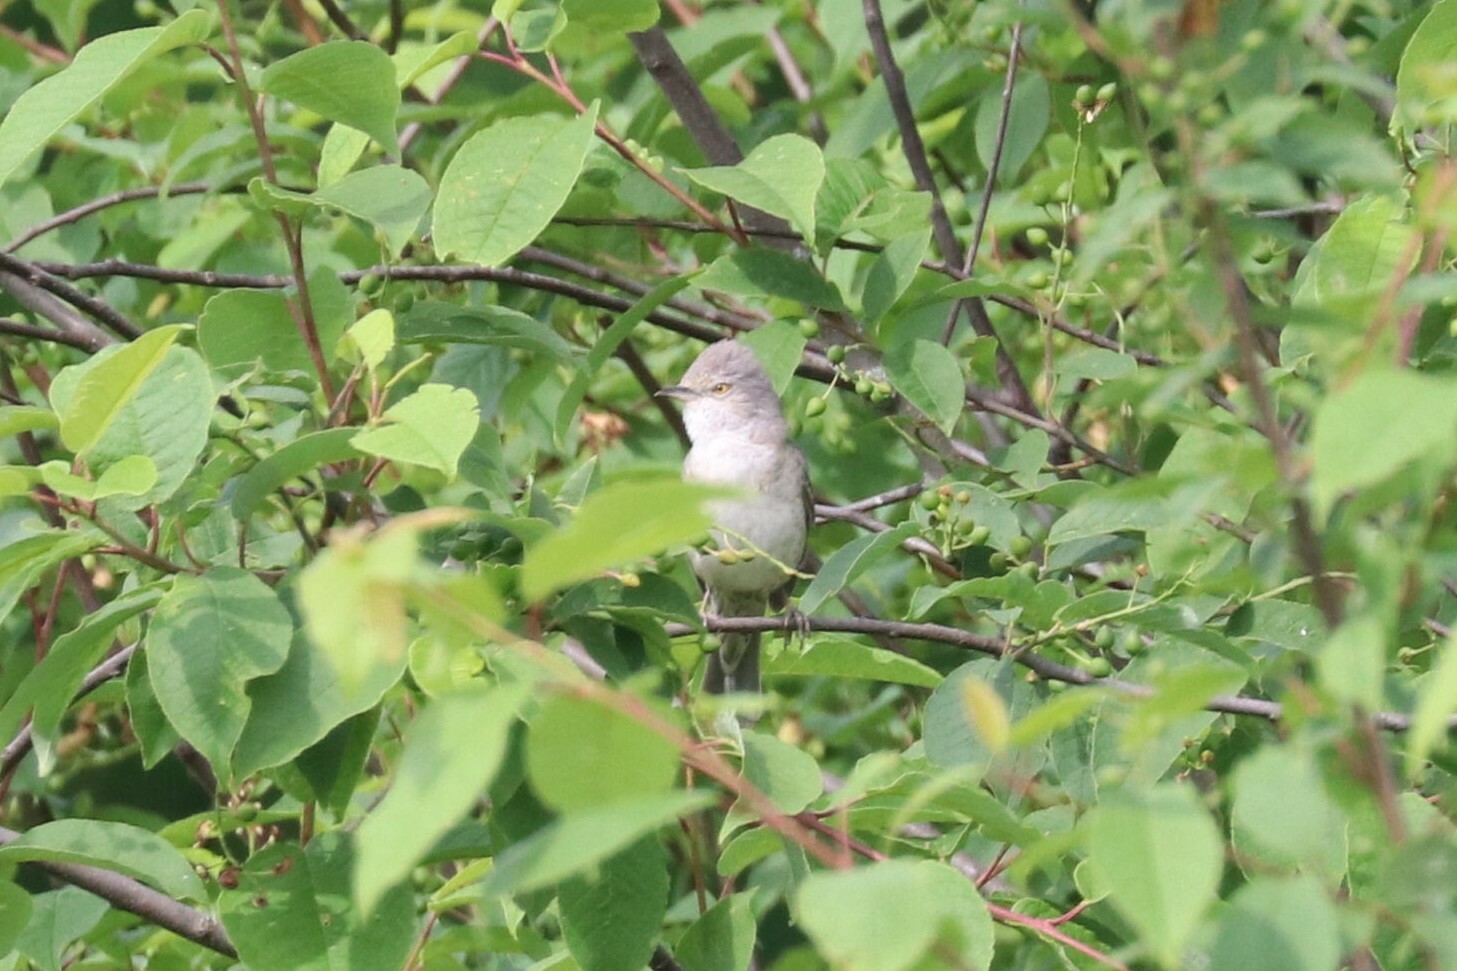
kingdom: Animalia
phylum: Chordata
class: Aves
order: Passeriformes
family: Sylviidae
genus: Sylvia
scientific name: Sylvia nisoria
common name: Barred warbler
